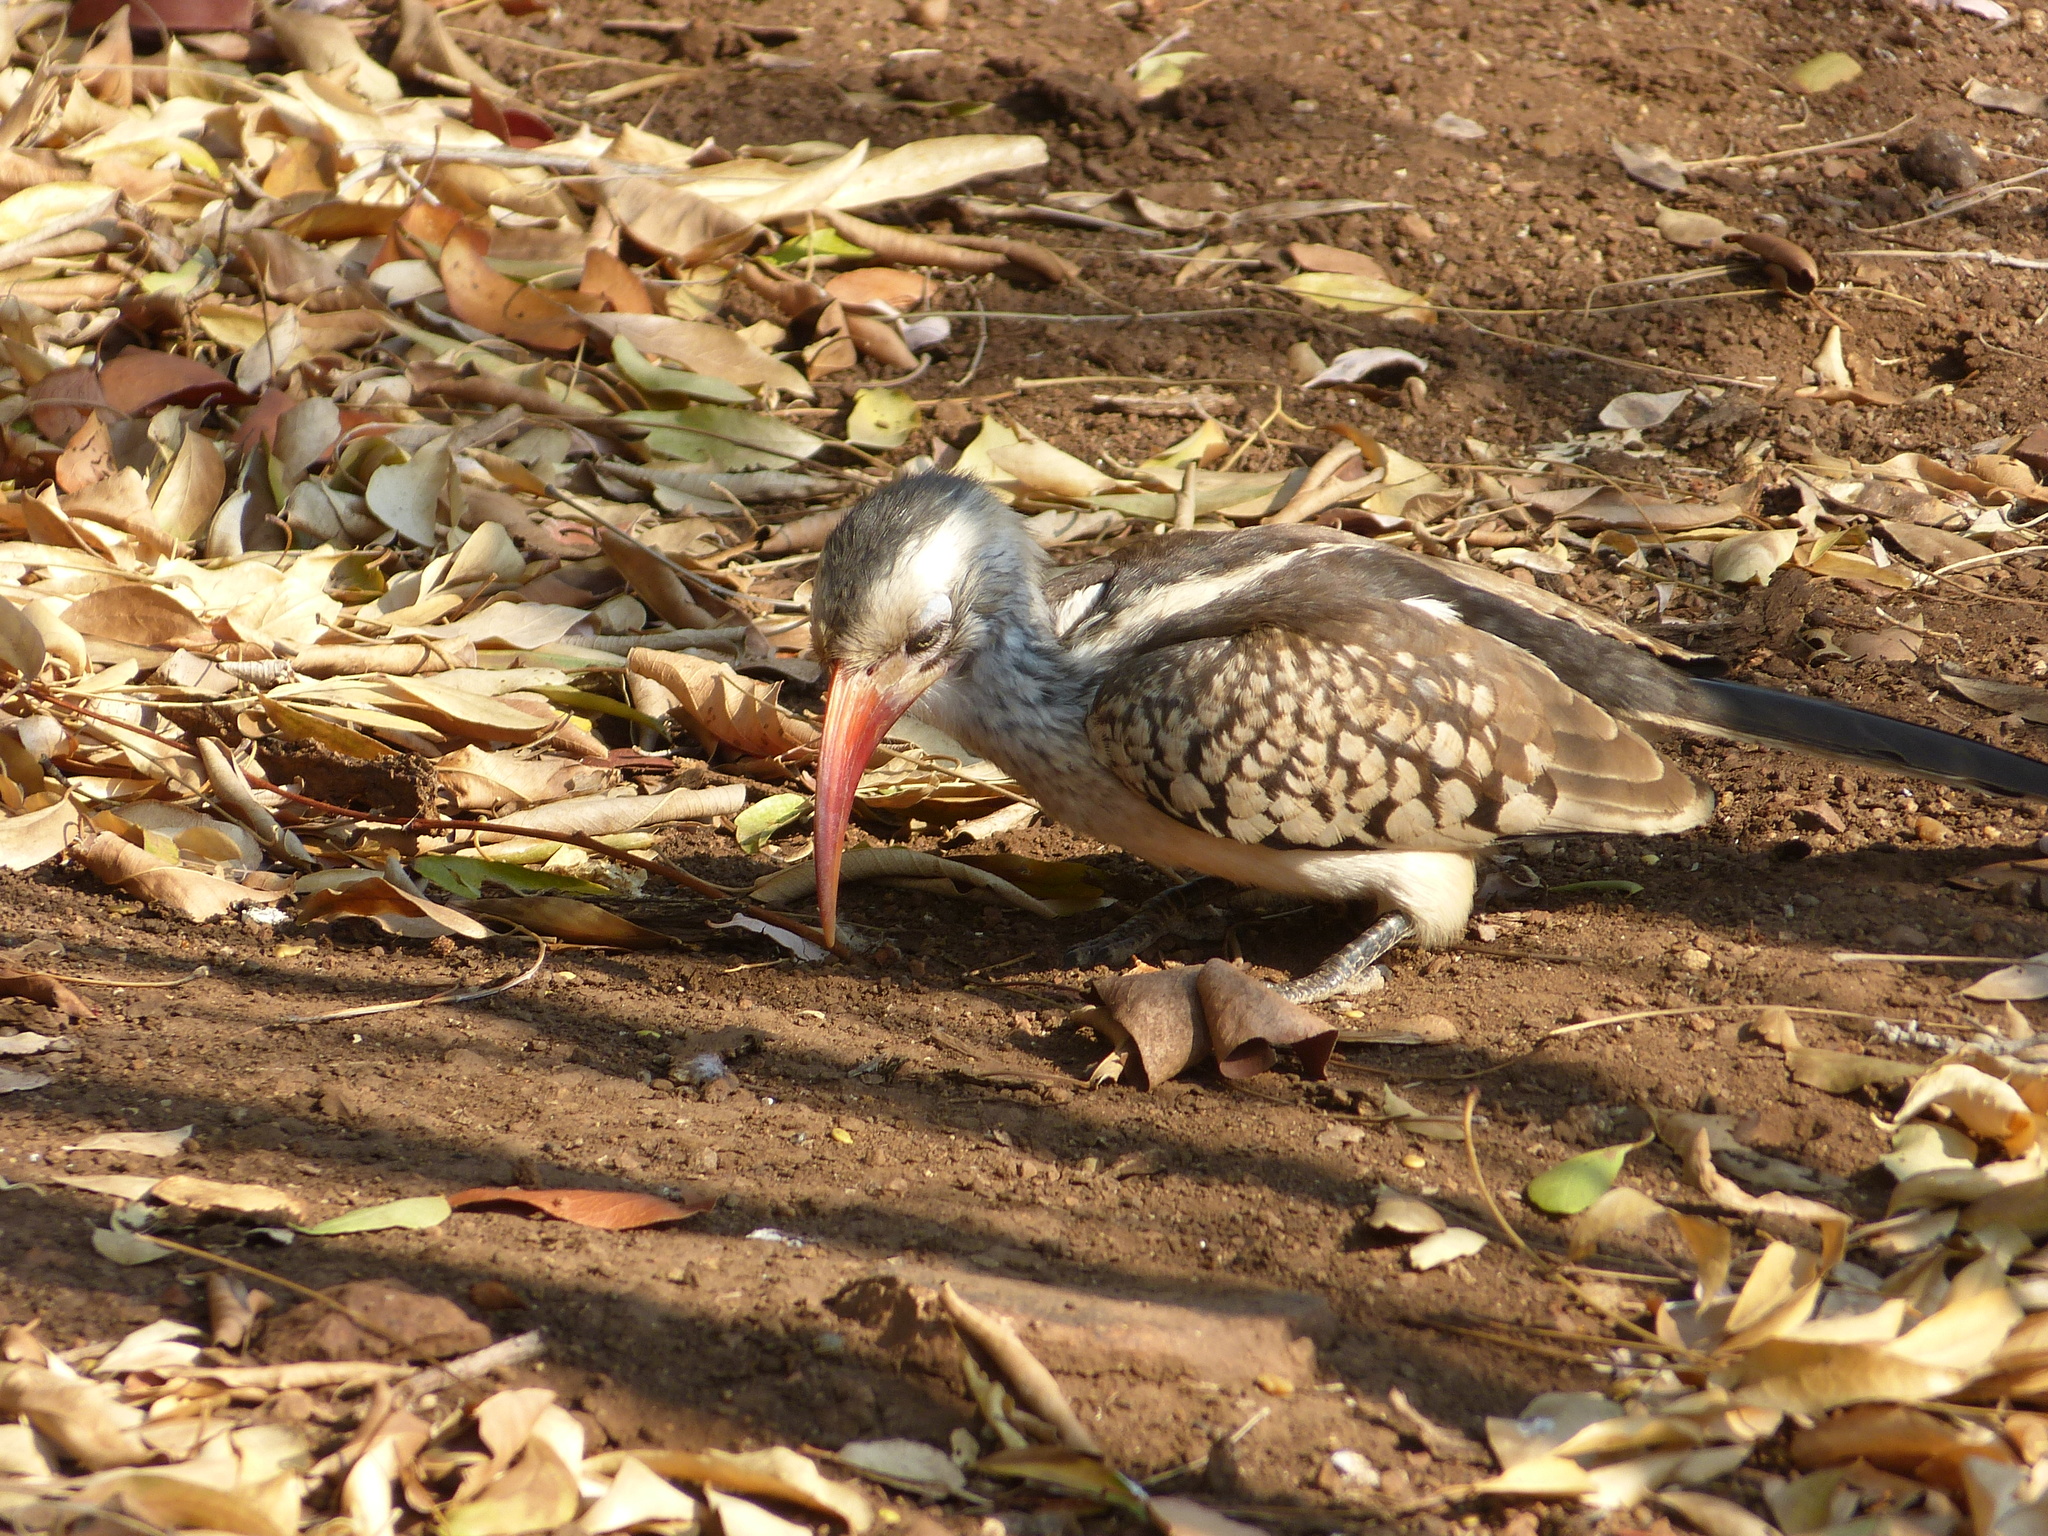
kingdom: Animalia
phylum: Chordata
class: Aves
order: Bucerotiformes
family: Bucerotidae
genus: Tockus
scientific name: Tockus rufirostris
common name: Southern red-billed hornbill
